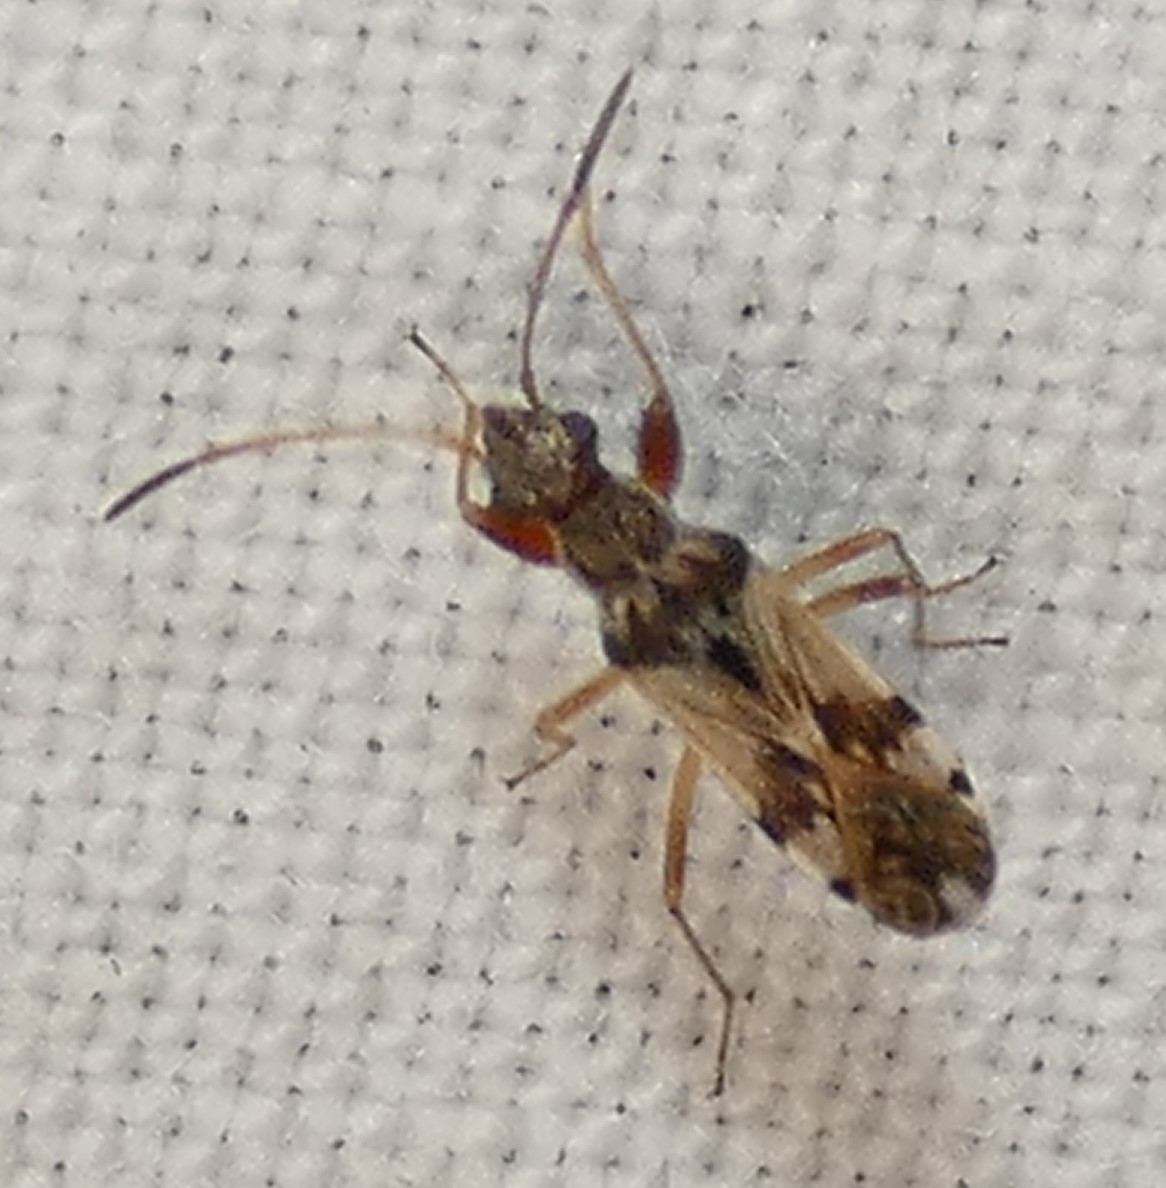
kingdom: Animalia
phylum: Arthropoda
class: Insecta
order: Hemiptera
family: Rhyparochromidae
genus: Neopamera
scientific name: Neopamera bilobata
